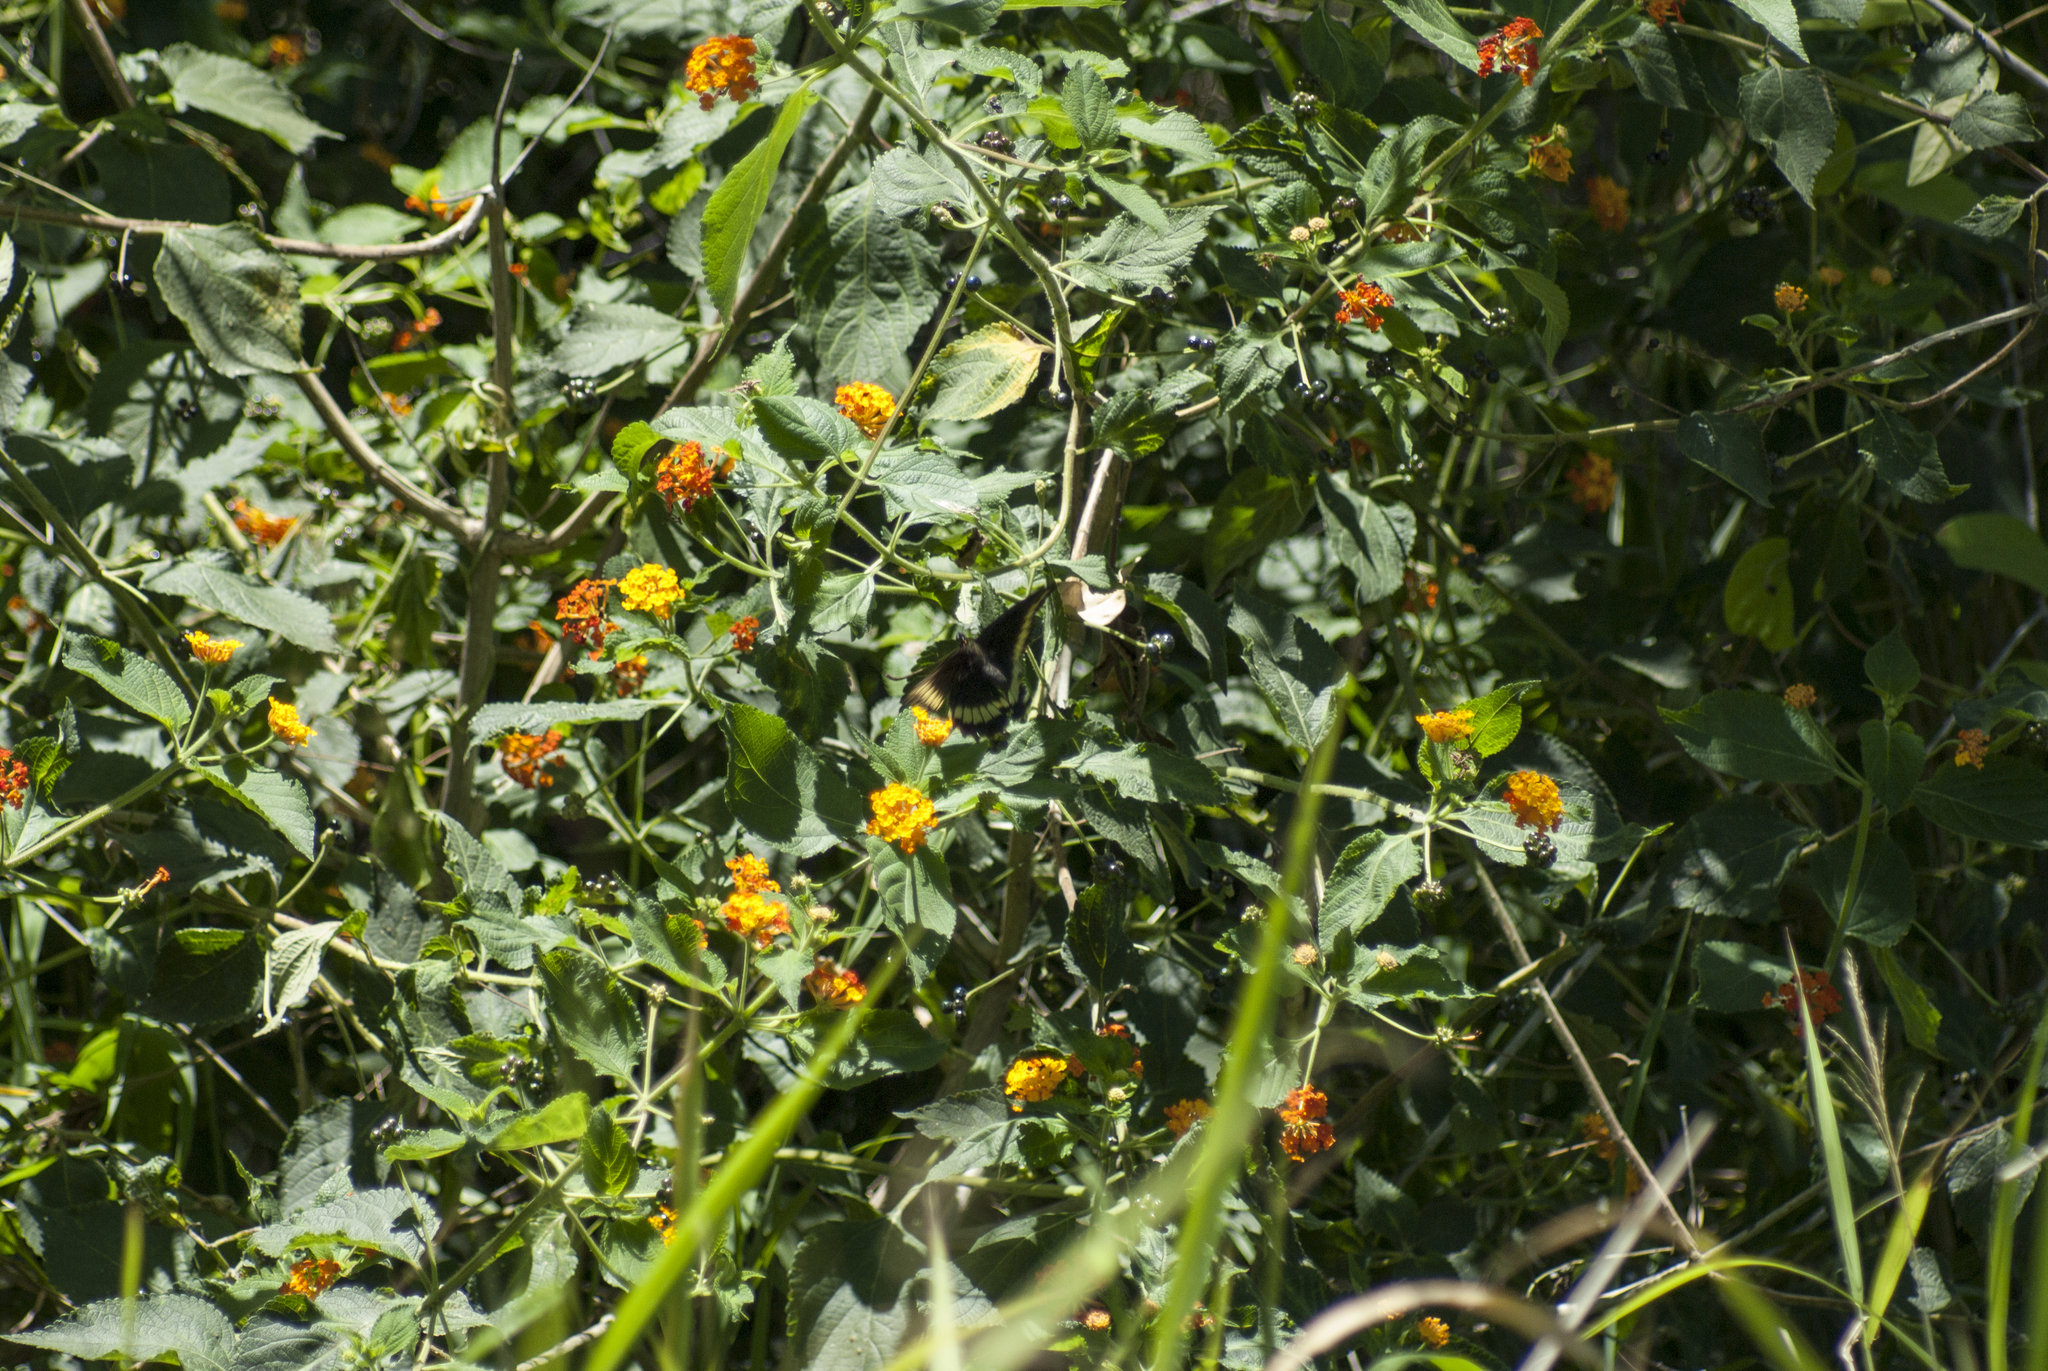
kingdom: Animalia
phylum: Arthropoda
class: Insecta
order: Lepidoptera
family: Papilionidae
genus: Battus
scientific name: Battus polydamas
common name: Polydamas swallowtail
